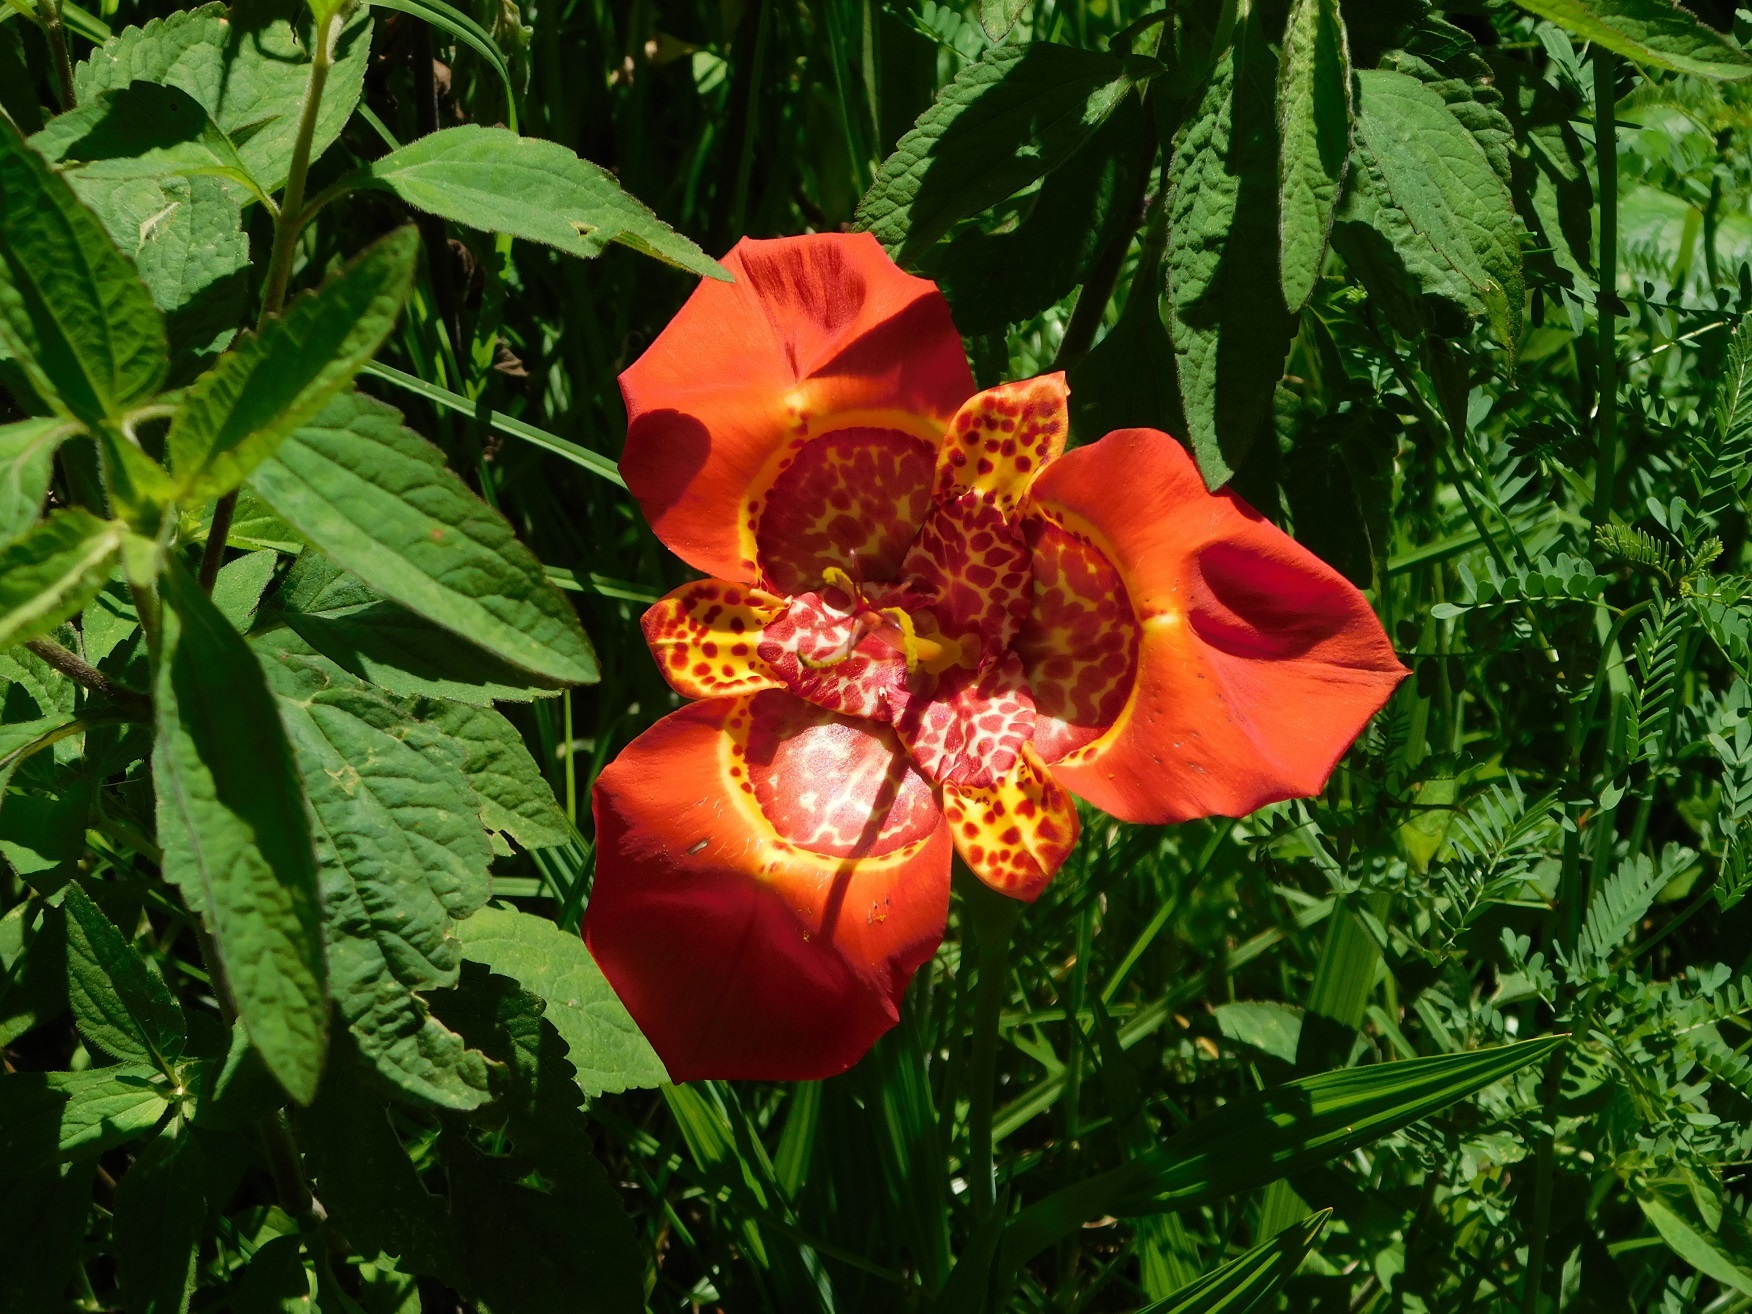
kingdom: Plantae
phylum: Tracheophyta
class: Liliopsida
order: Asparagales
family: Iridaceae
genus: Tigridia
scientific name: Tigridia pavonia
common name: Peacock-flower
